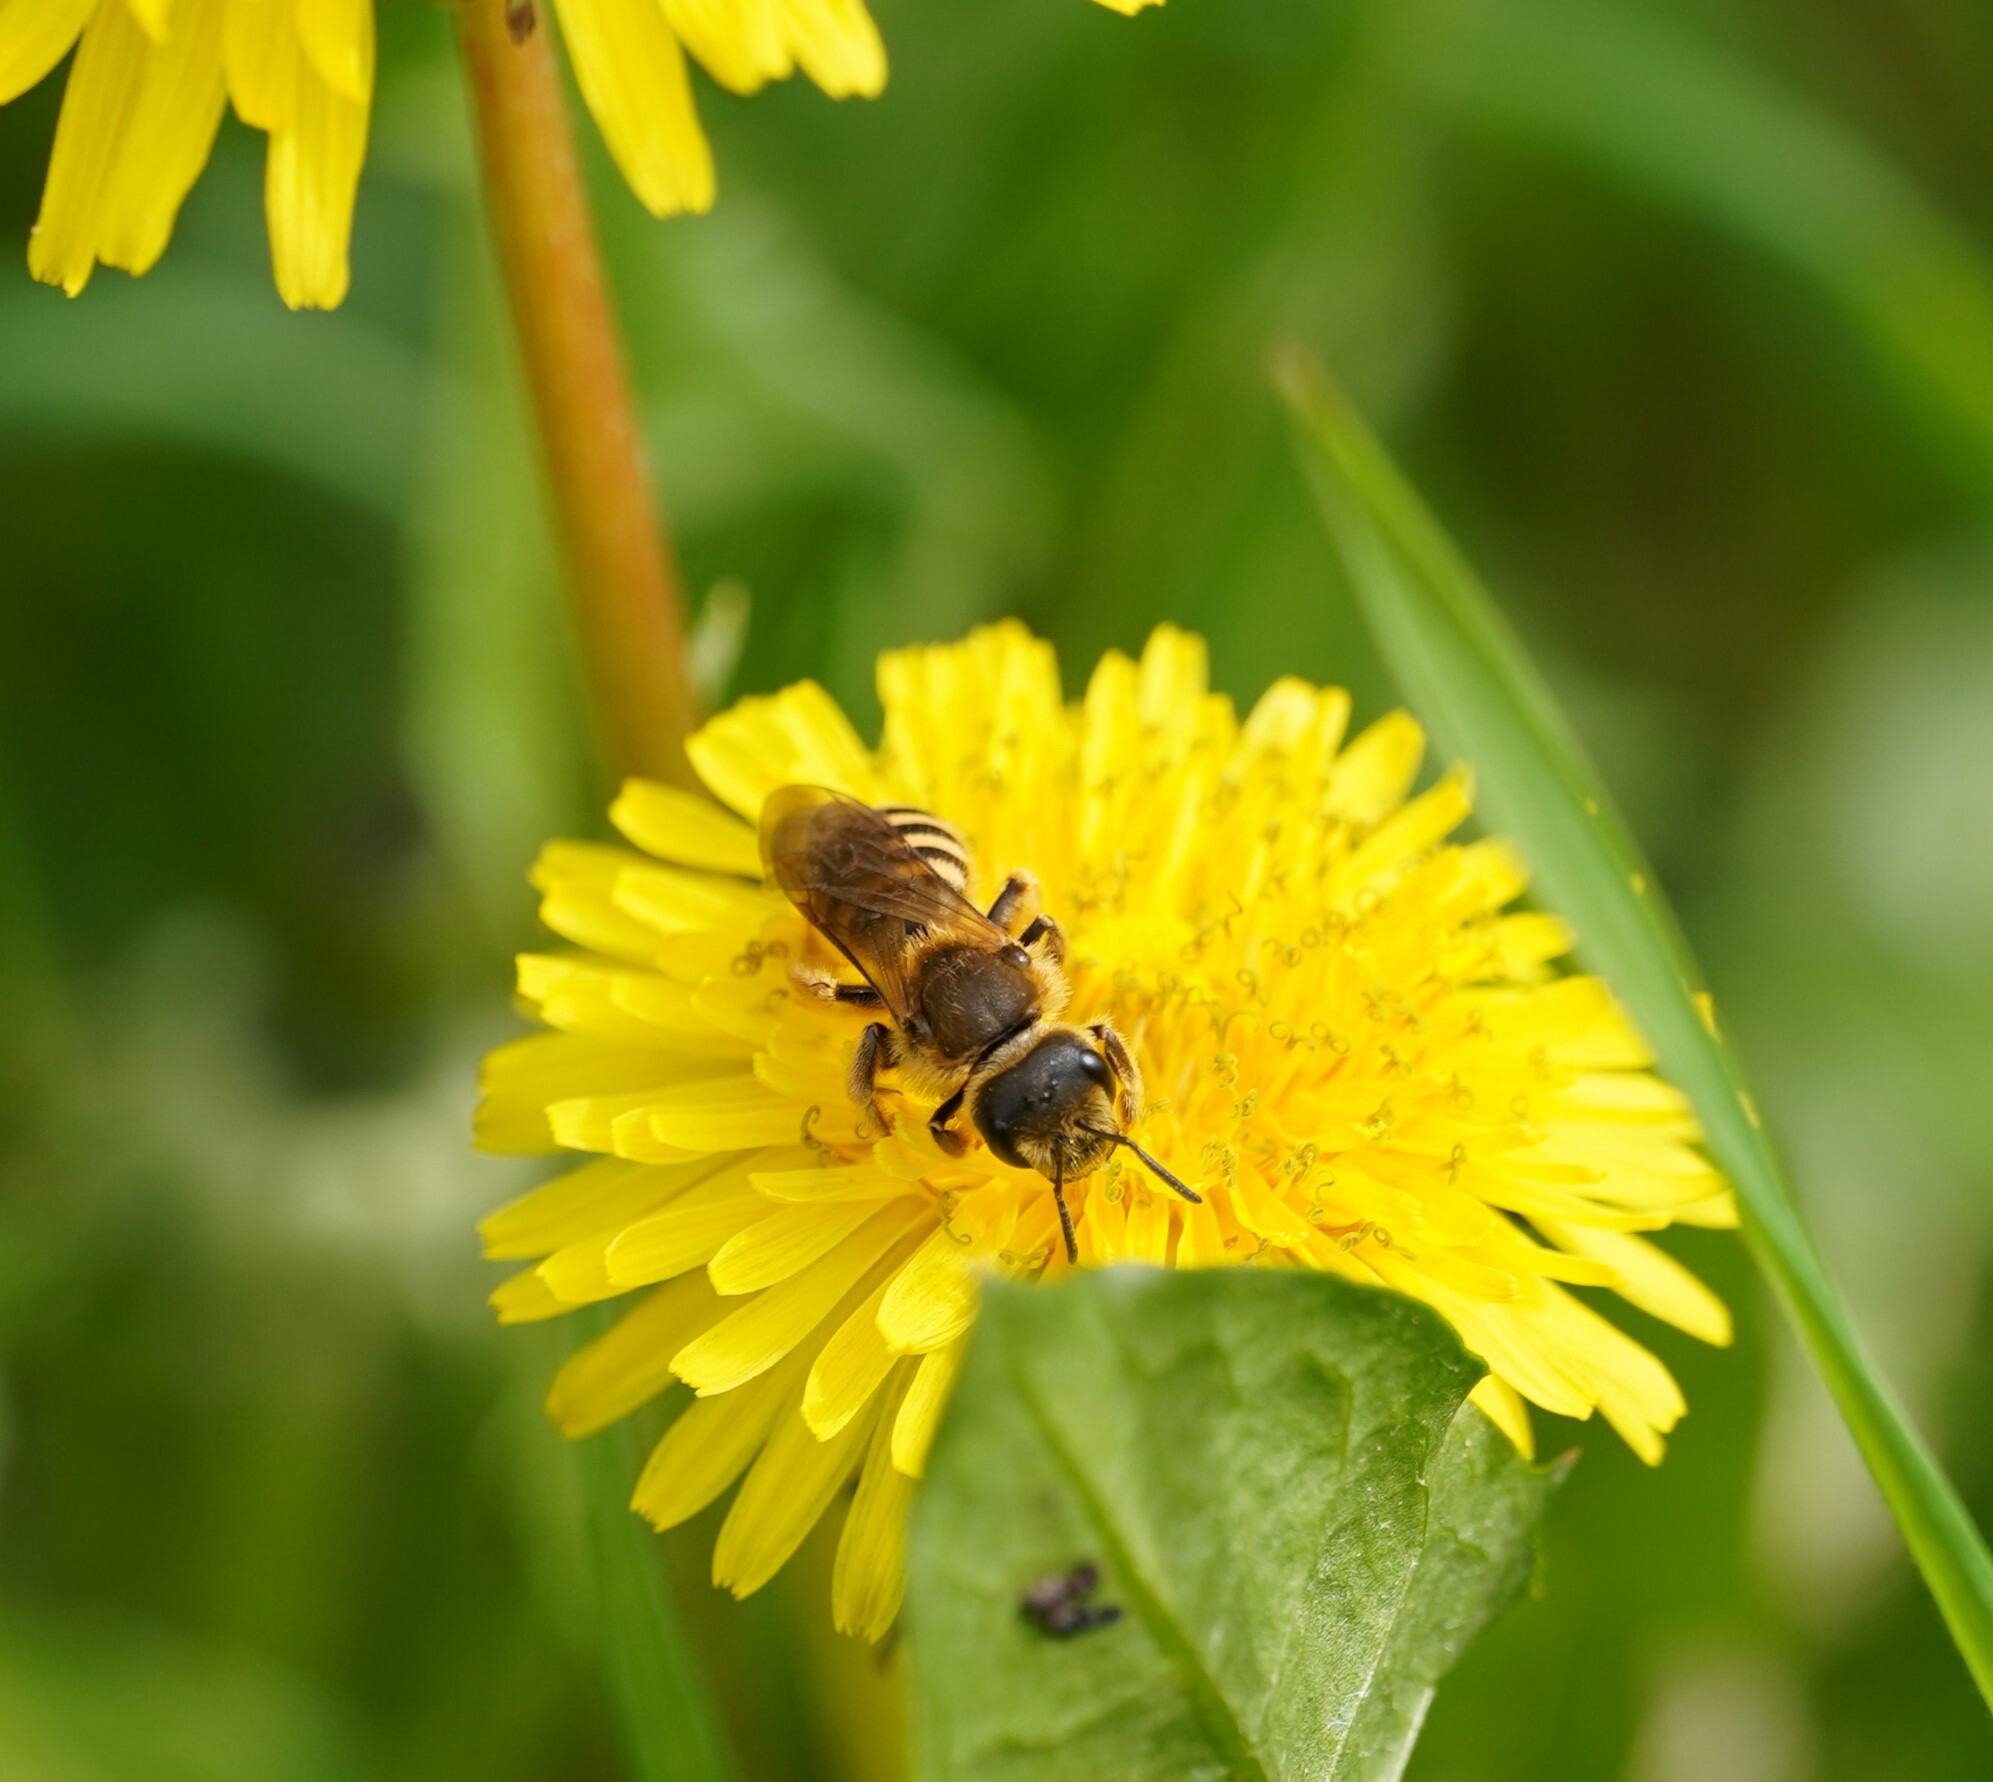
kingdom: Animalia
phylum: Arthropoda
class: Insecta
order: Hymenoptera
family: Halictidae
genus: Halictus
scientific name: Halictus scabiosae
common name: Great banded furrow bee
